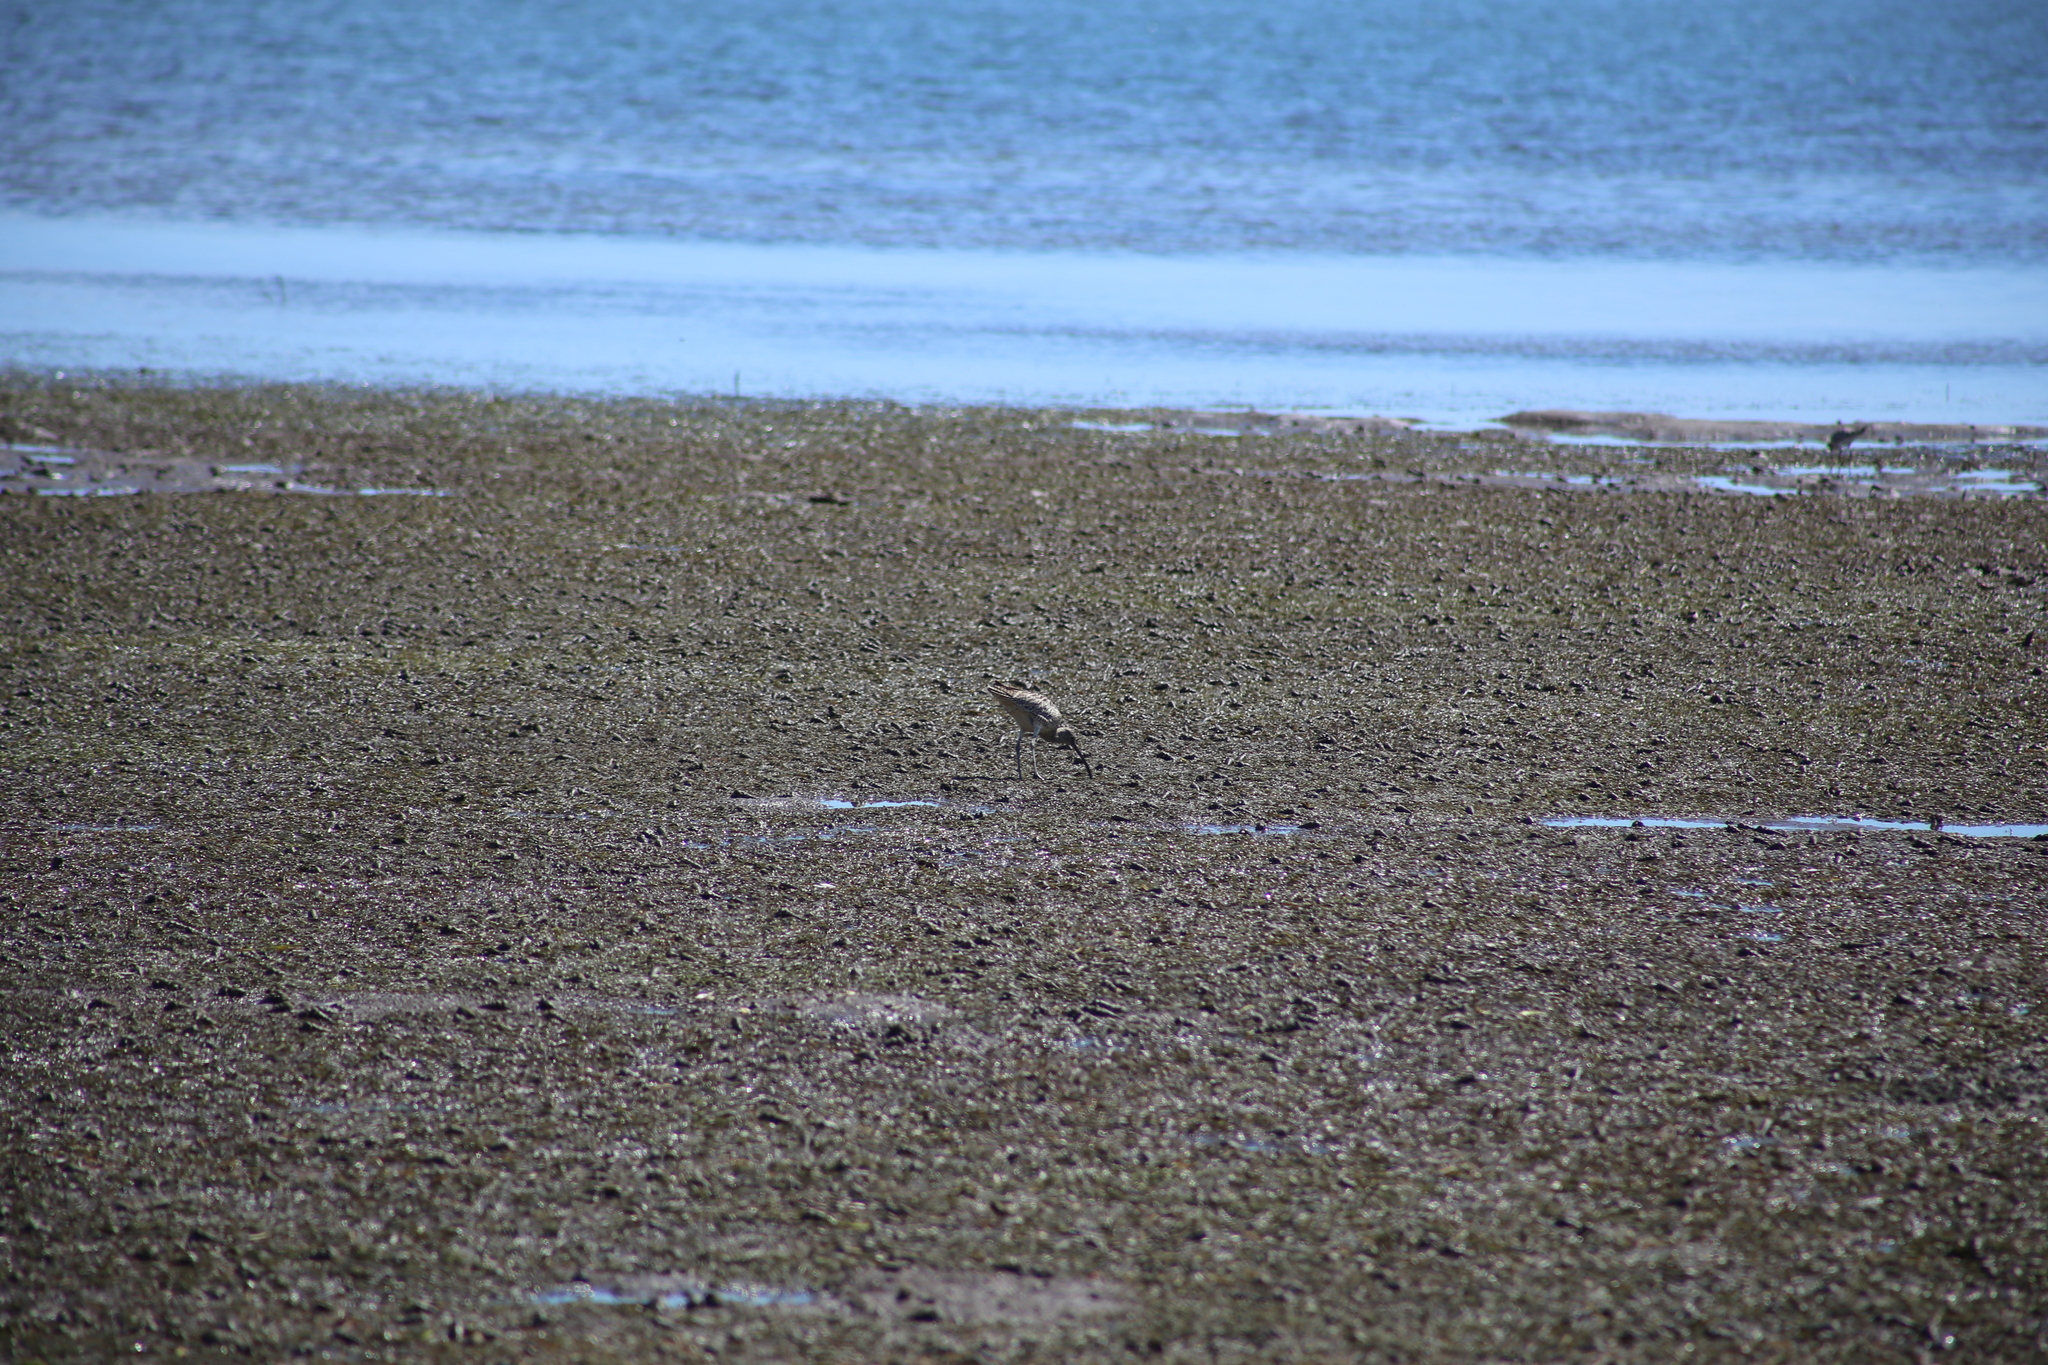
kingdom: Animalia
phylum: Chordata
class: Aves
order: Charadriiformes
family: Scolopacidae
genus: Numenius
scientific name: Numenius madagascariensis
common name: Far eastern curlew
